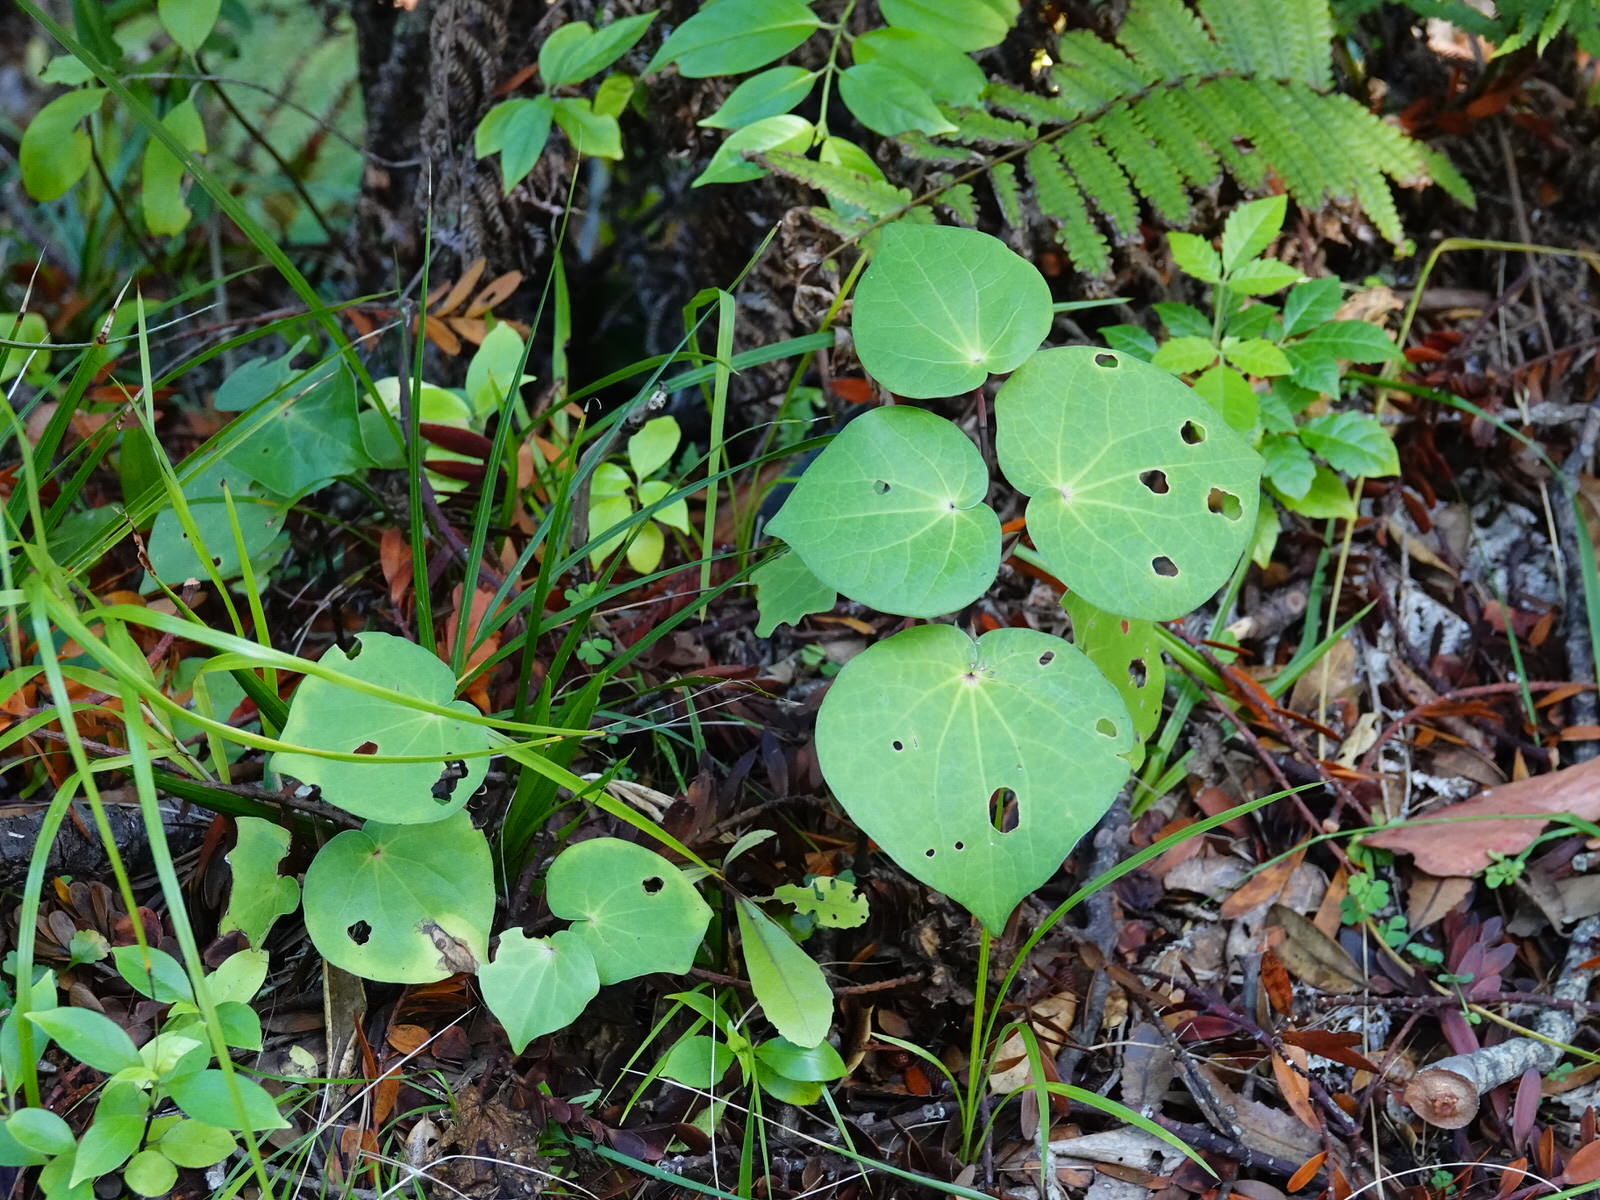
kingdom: Plantae
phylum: Tracheophyta
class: Magnoliopsida
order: Piperales
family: Piperaceae
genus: Macropiper
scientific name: Macropiper excelsum
